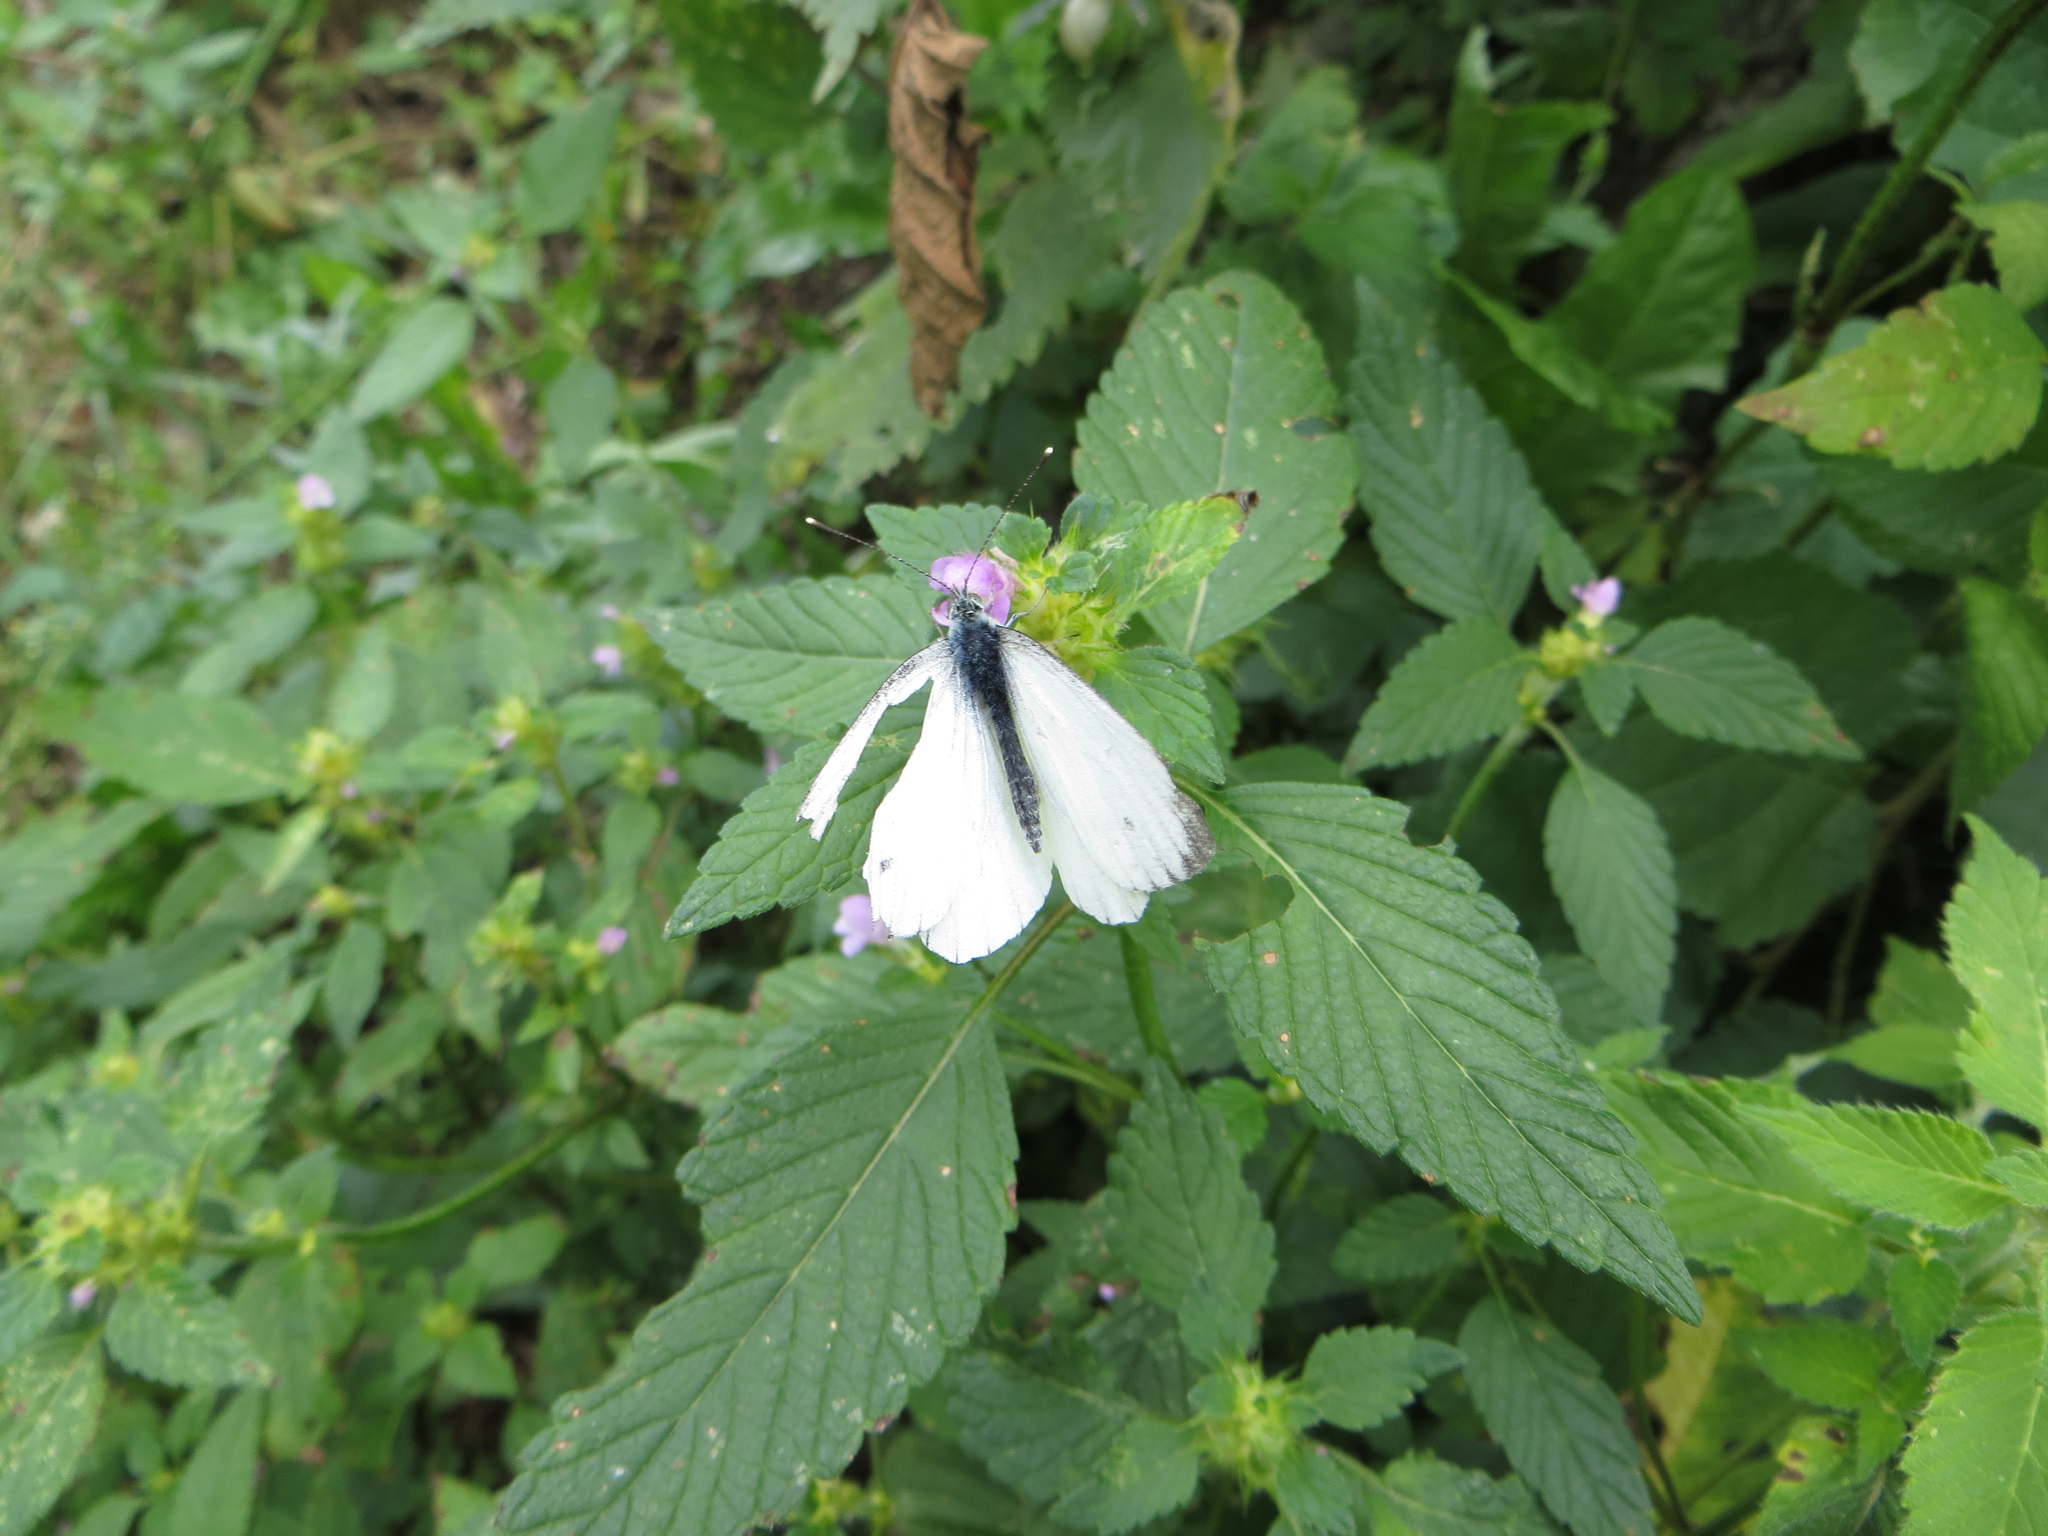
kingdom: Animalia
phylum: Arthropoda
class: Insecta
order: Lepidoptera
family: Pieridae
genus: Pieris
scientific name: Pieris napi
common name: Green-veined white
